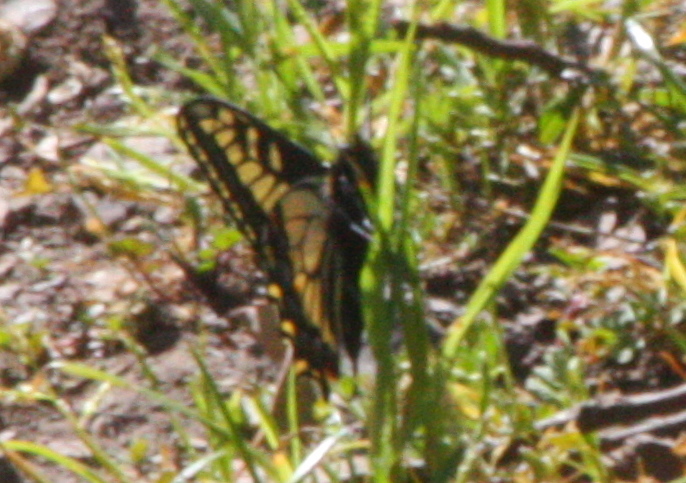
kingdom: Animalia
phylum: Arthropoda
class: Insecta
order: Lepidoptera
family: Papilionidae
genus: Papilio
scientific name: Papilio zelicaon
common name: Anise swallowtail
